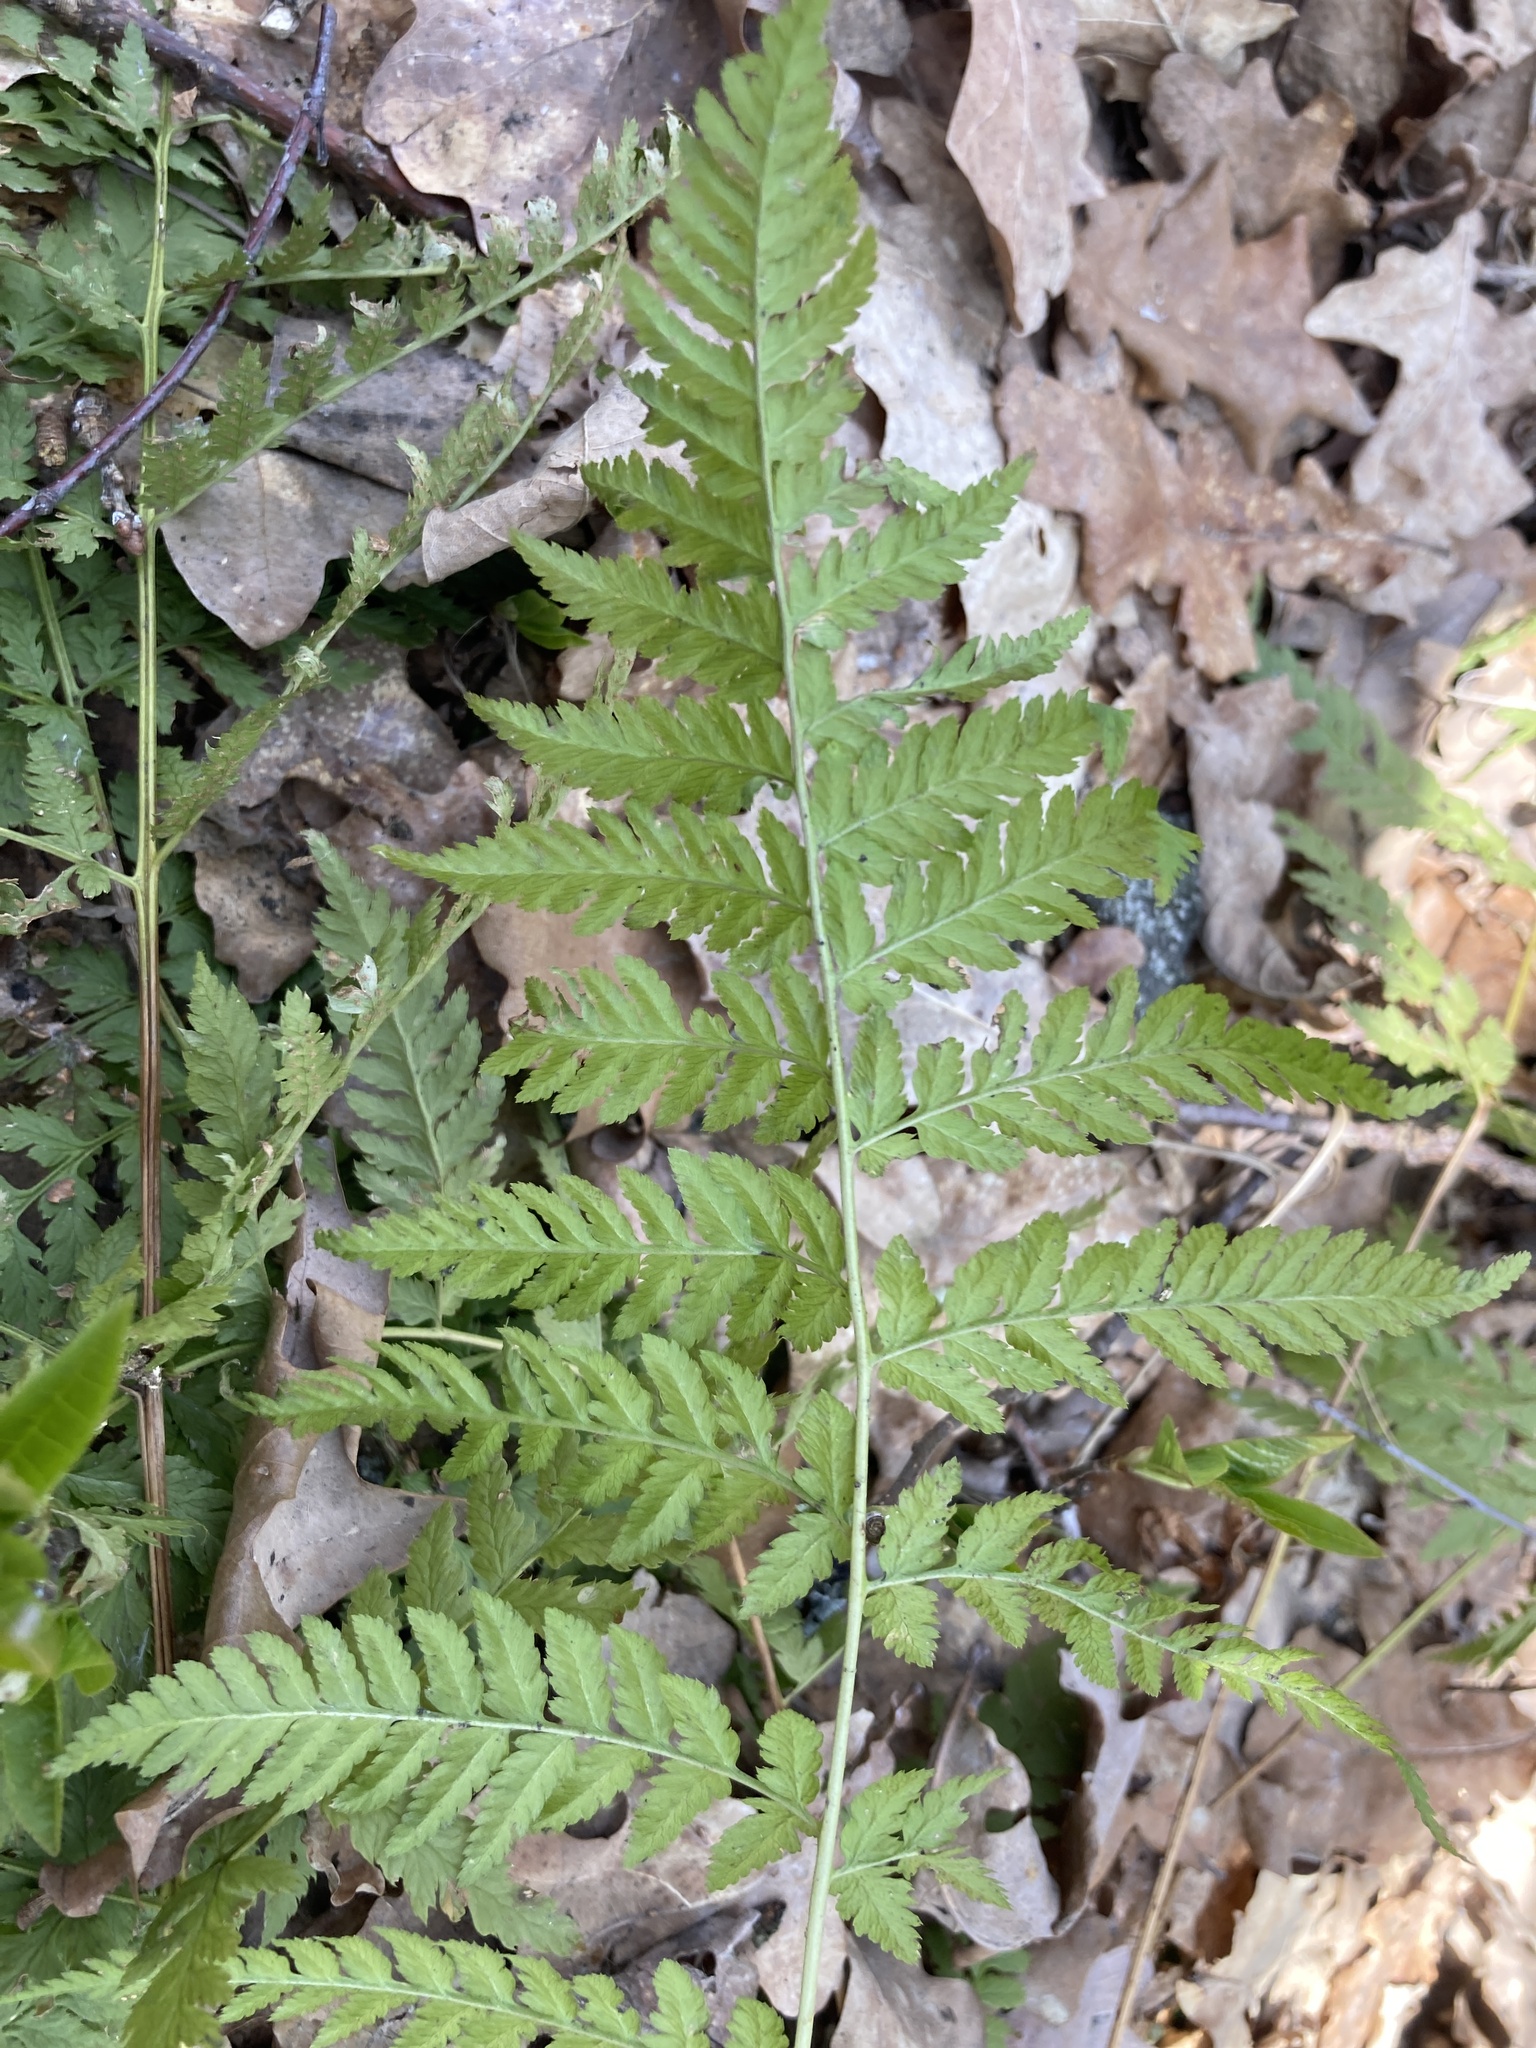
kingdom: Plantae
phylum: Tracheophyta
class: Polypodiopsida
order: Polypodiales
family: Dryopteridaceae
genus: Dryopteris
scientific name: Dryopteris carthusiana
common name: Narrow buckler-fern
